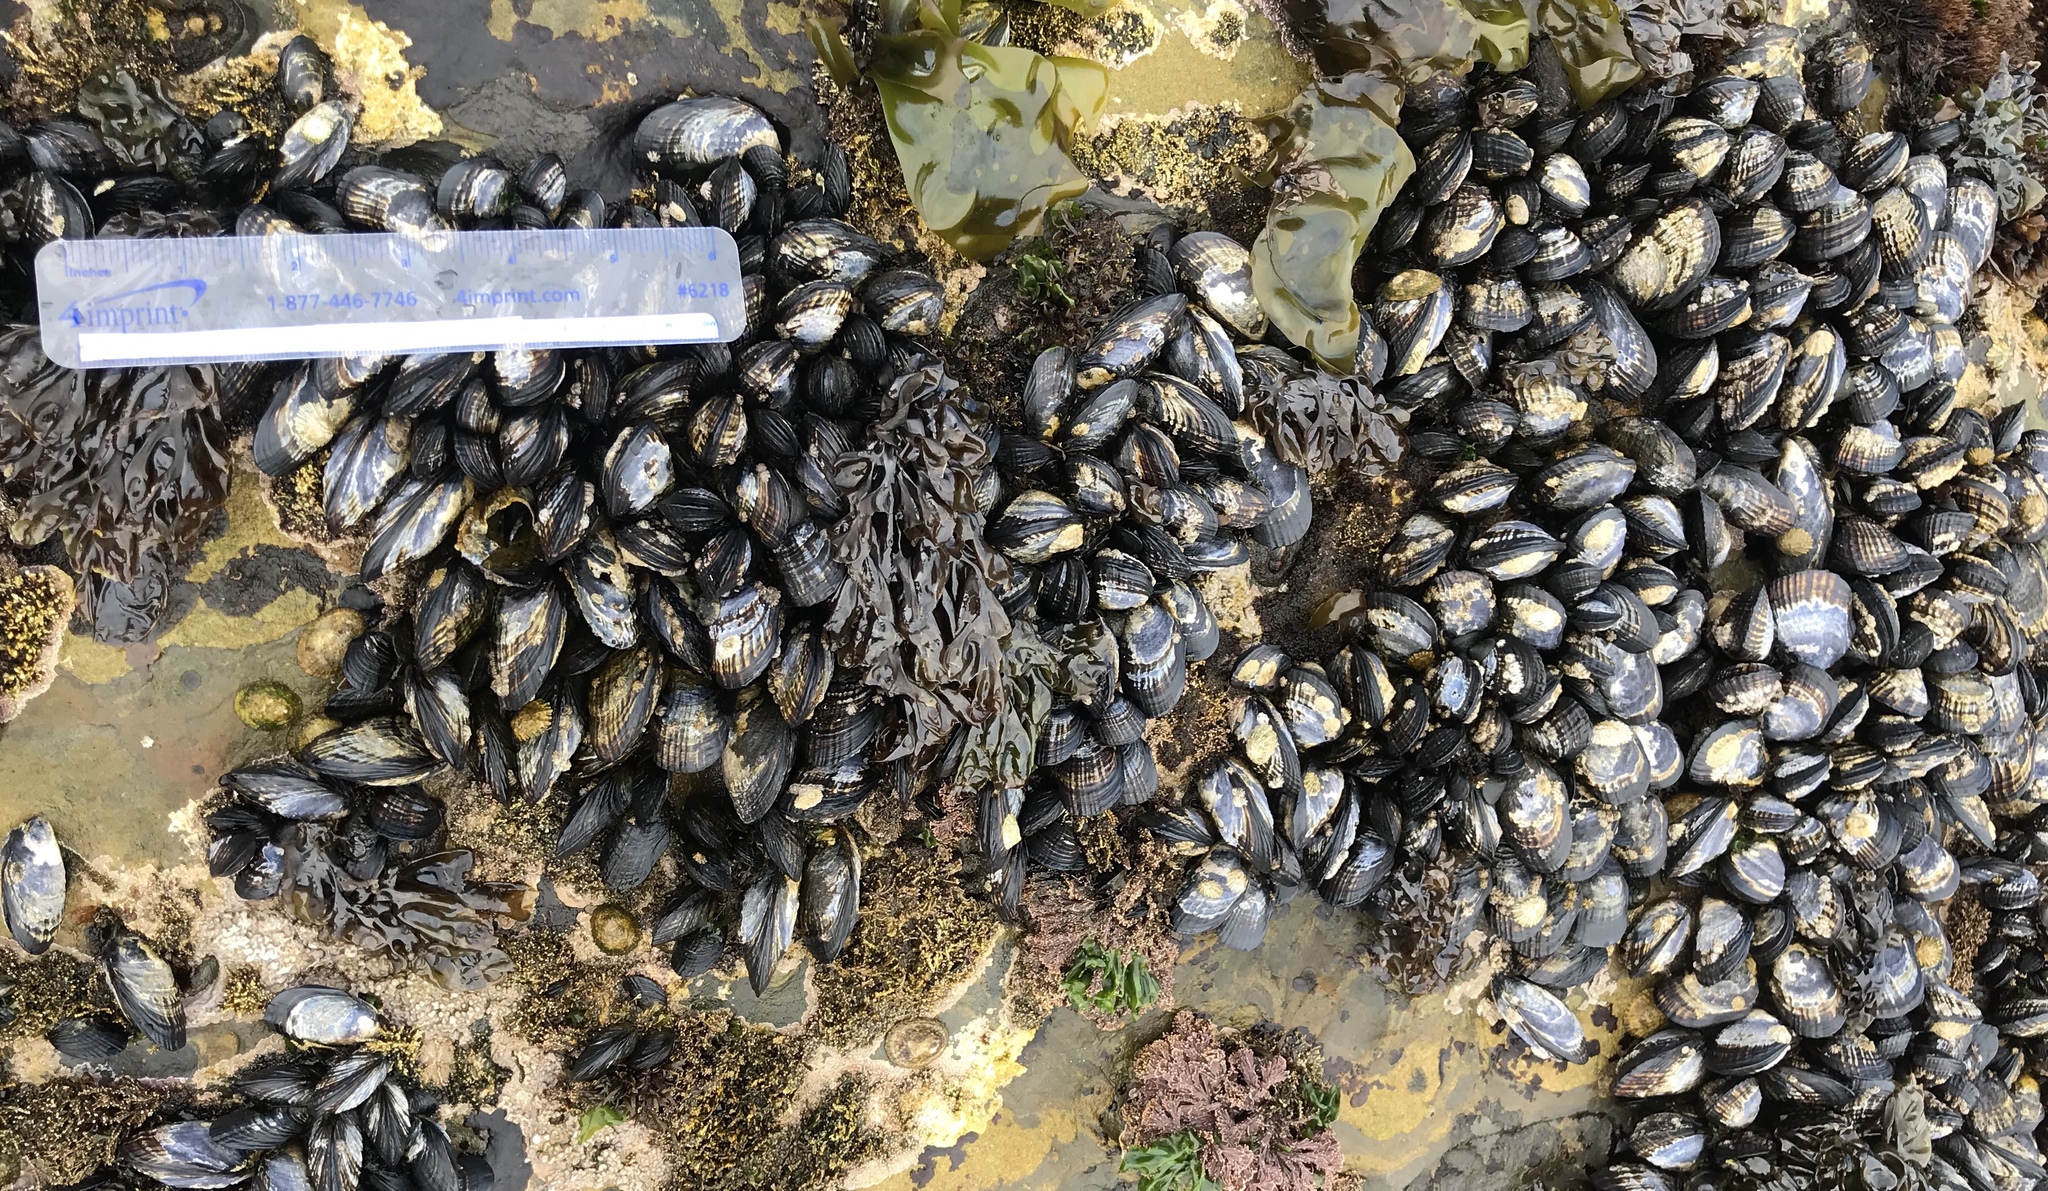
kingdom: Animalia
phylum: Mollusca
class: Bivalvia
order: Mytilida
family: Mytilidae
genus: Mytilus
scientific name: Mytilus californianus
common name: California mussel
